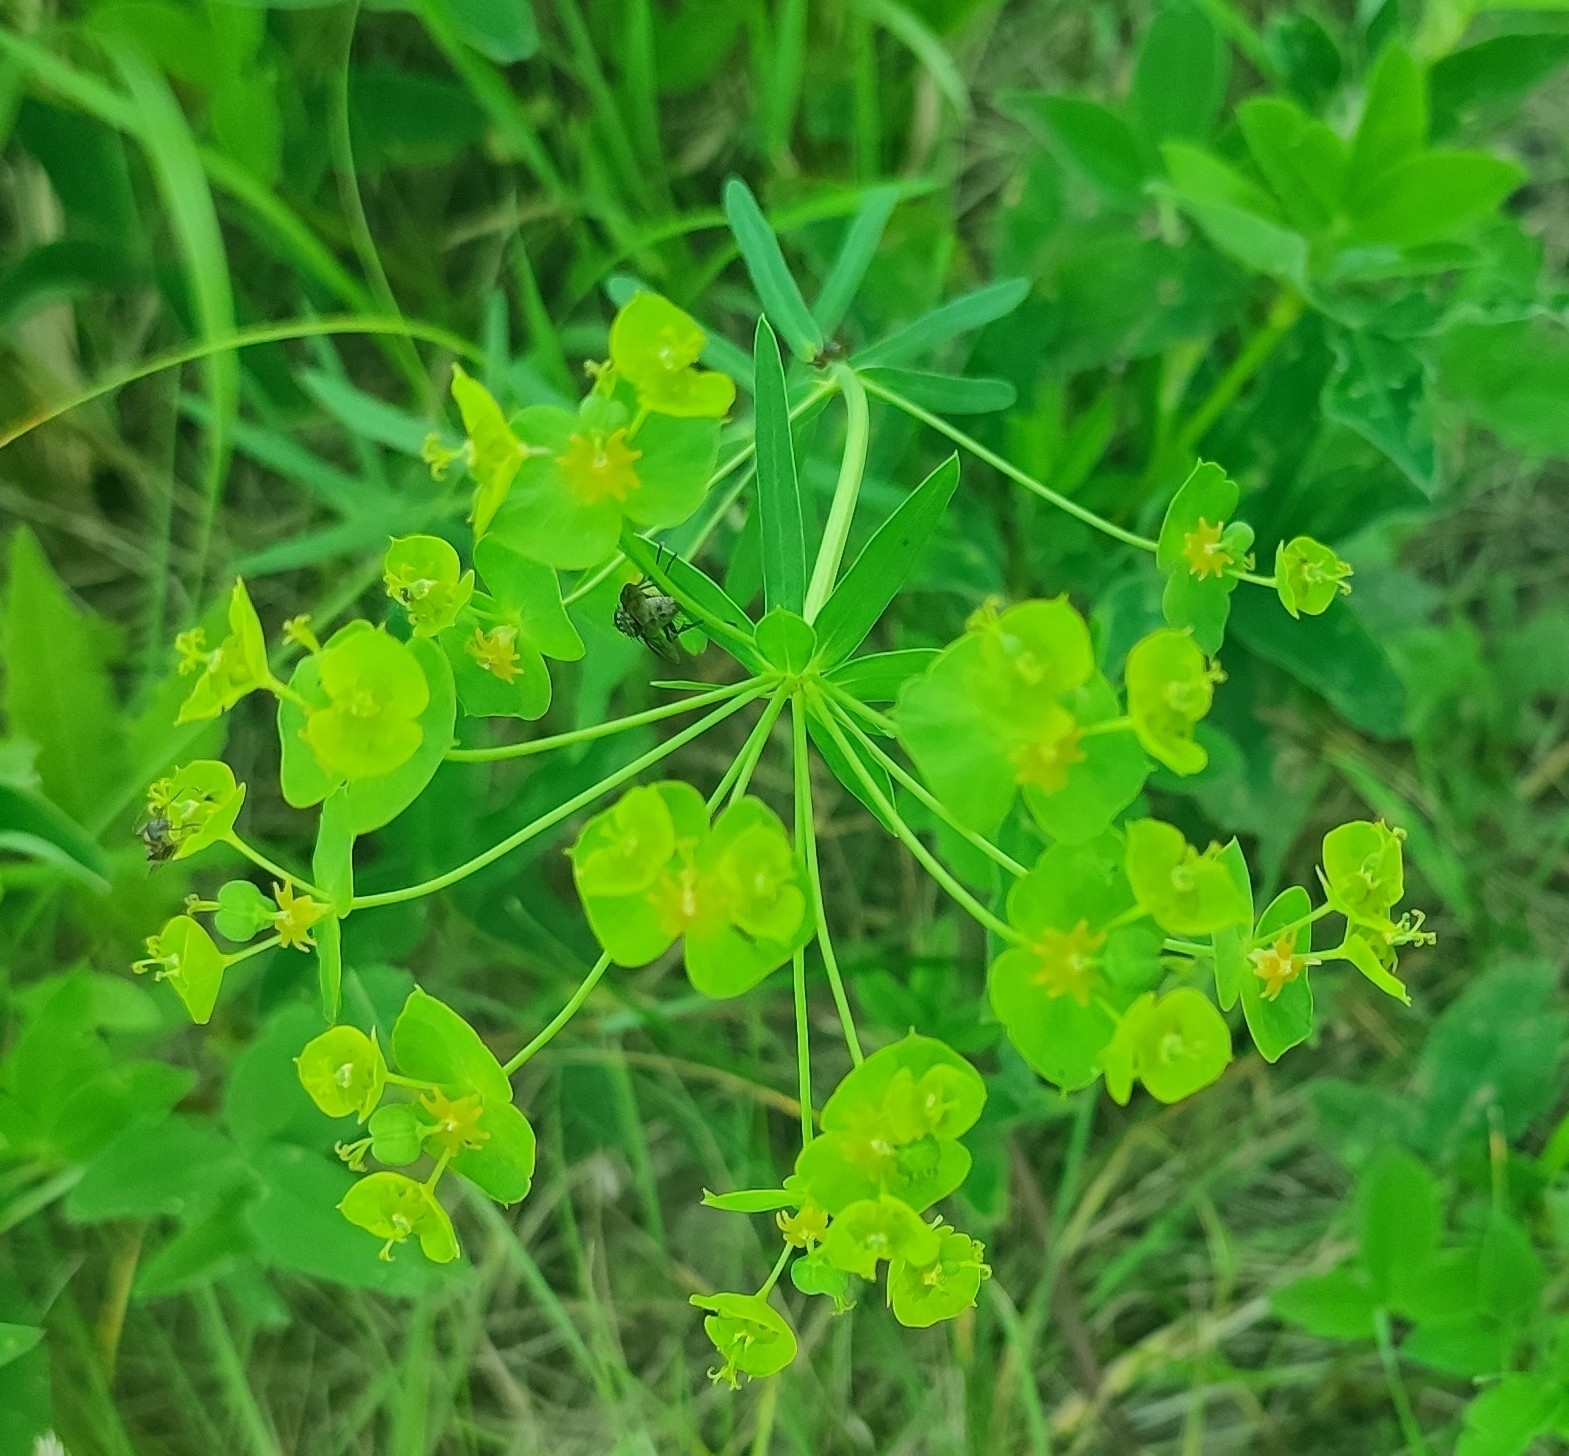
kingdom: Plantae
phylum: Tracheophyta
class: Magnoliopsida
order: Malpighiales
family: Euphorbiaceae
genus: Euphorbia
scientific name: Euphorbia virgata
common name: Leafy spurge
